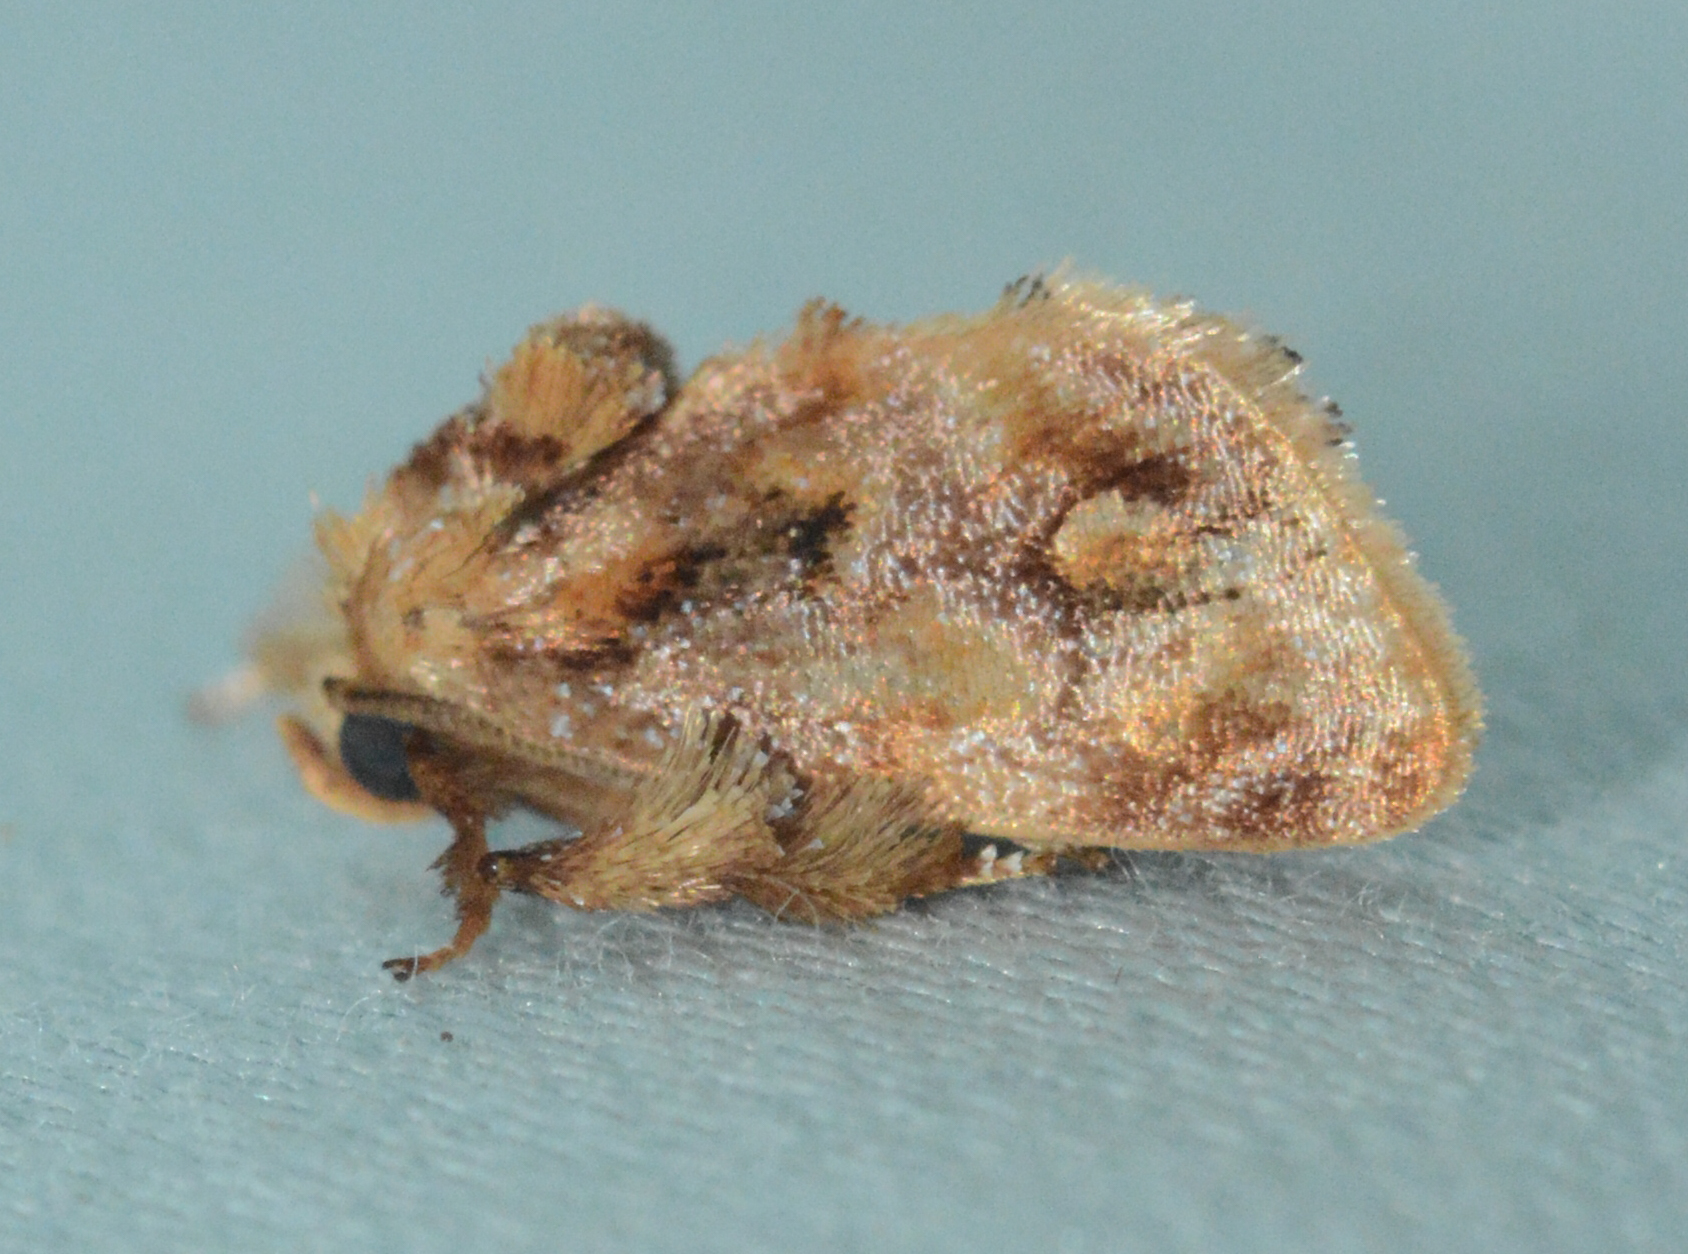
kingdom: Animalia
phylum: Arthropoda
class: Insecta
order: Lepidoptera
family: Limacodidae
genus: Isochaetes
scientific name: Isochaetes beutenmuelleri
